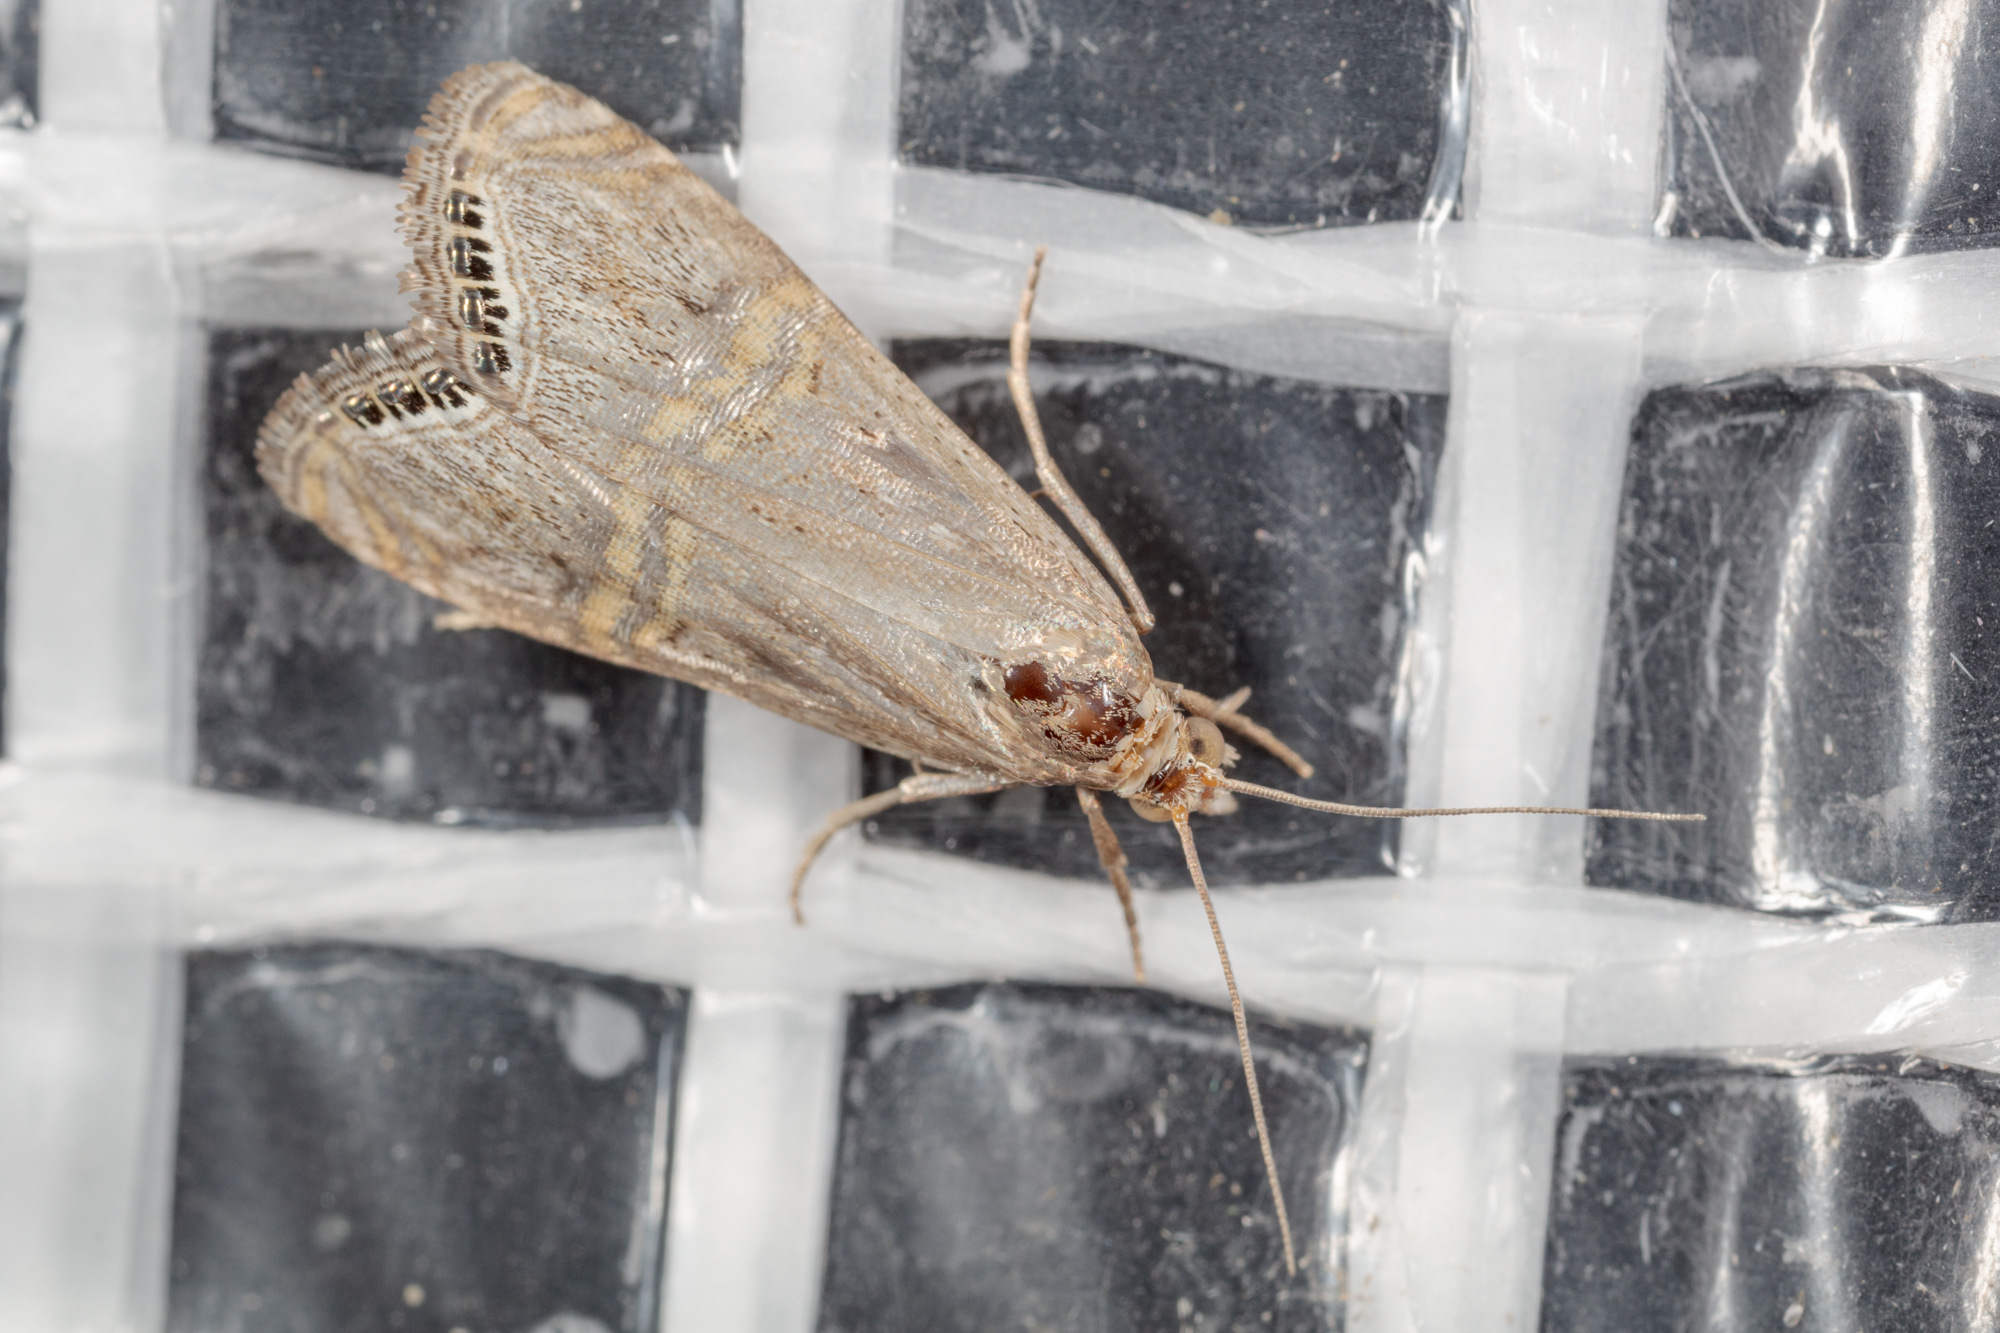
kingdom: Animalia
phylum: Arthropoda
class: Insecta
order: Lepidoptera
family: Crambidae
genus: Euchromius
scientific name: Euchromius ocellea
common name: Necklace veneer moth
